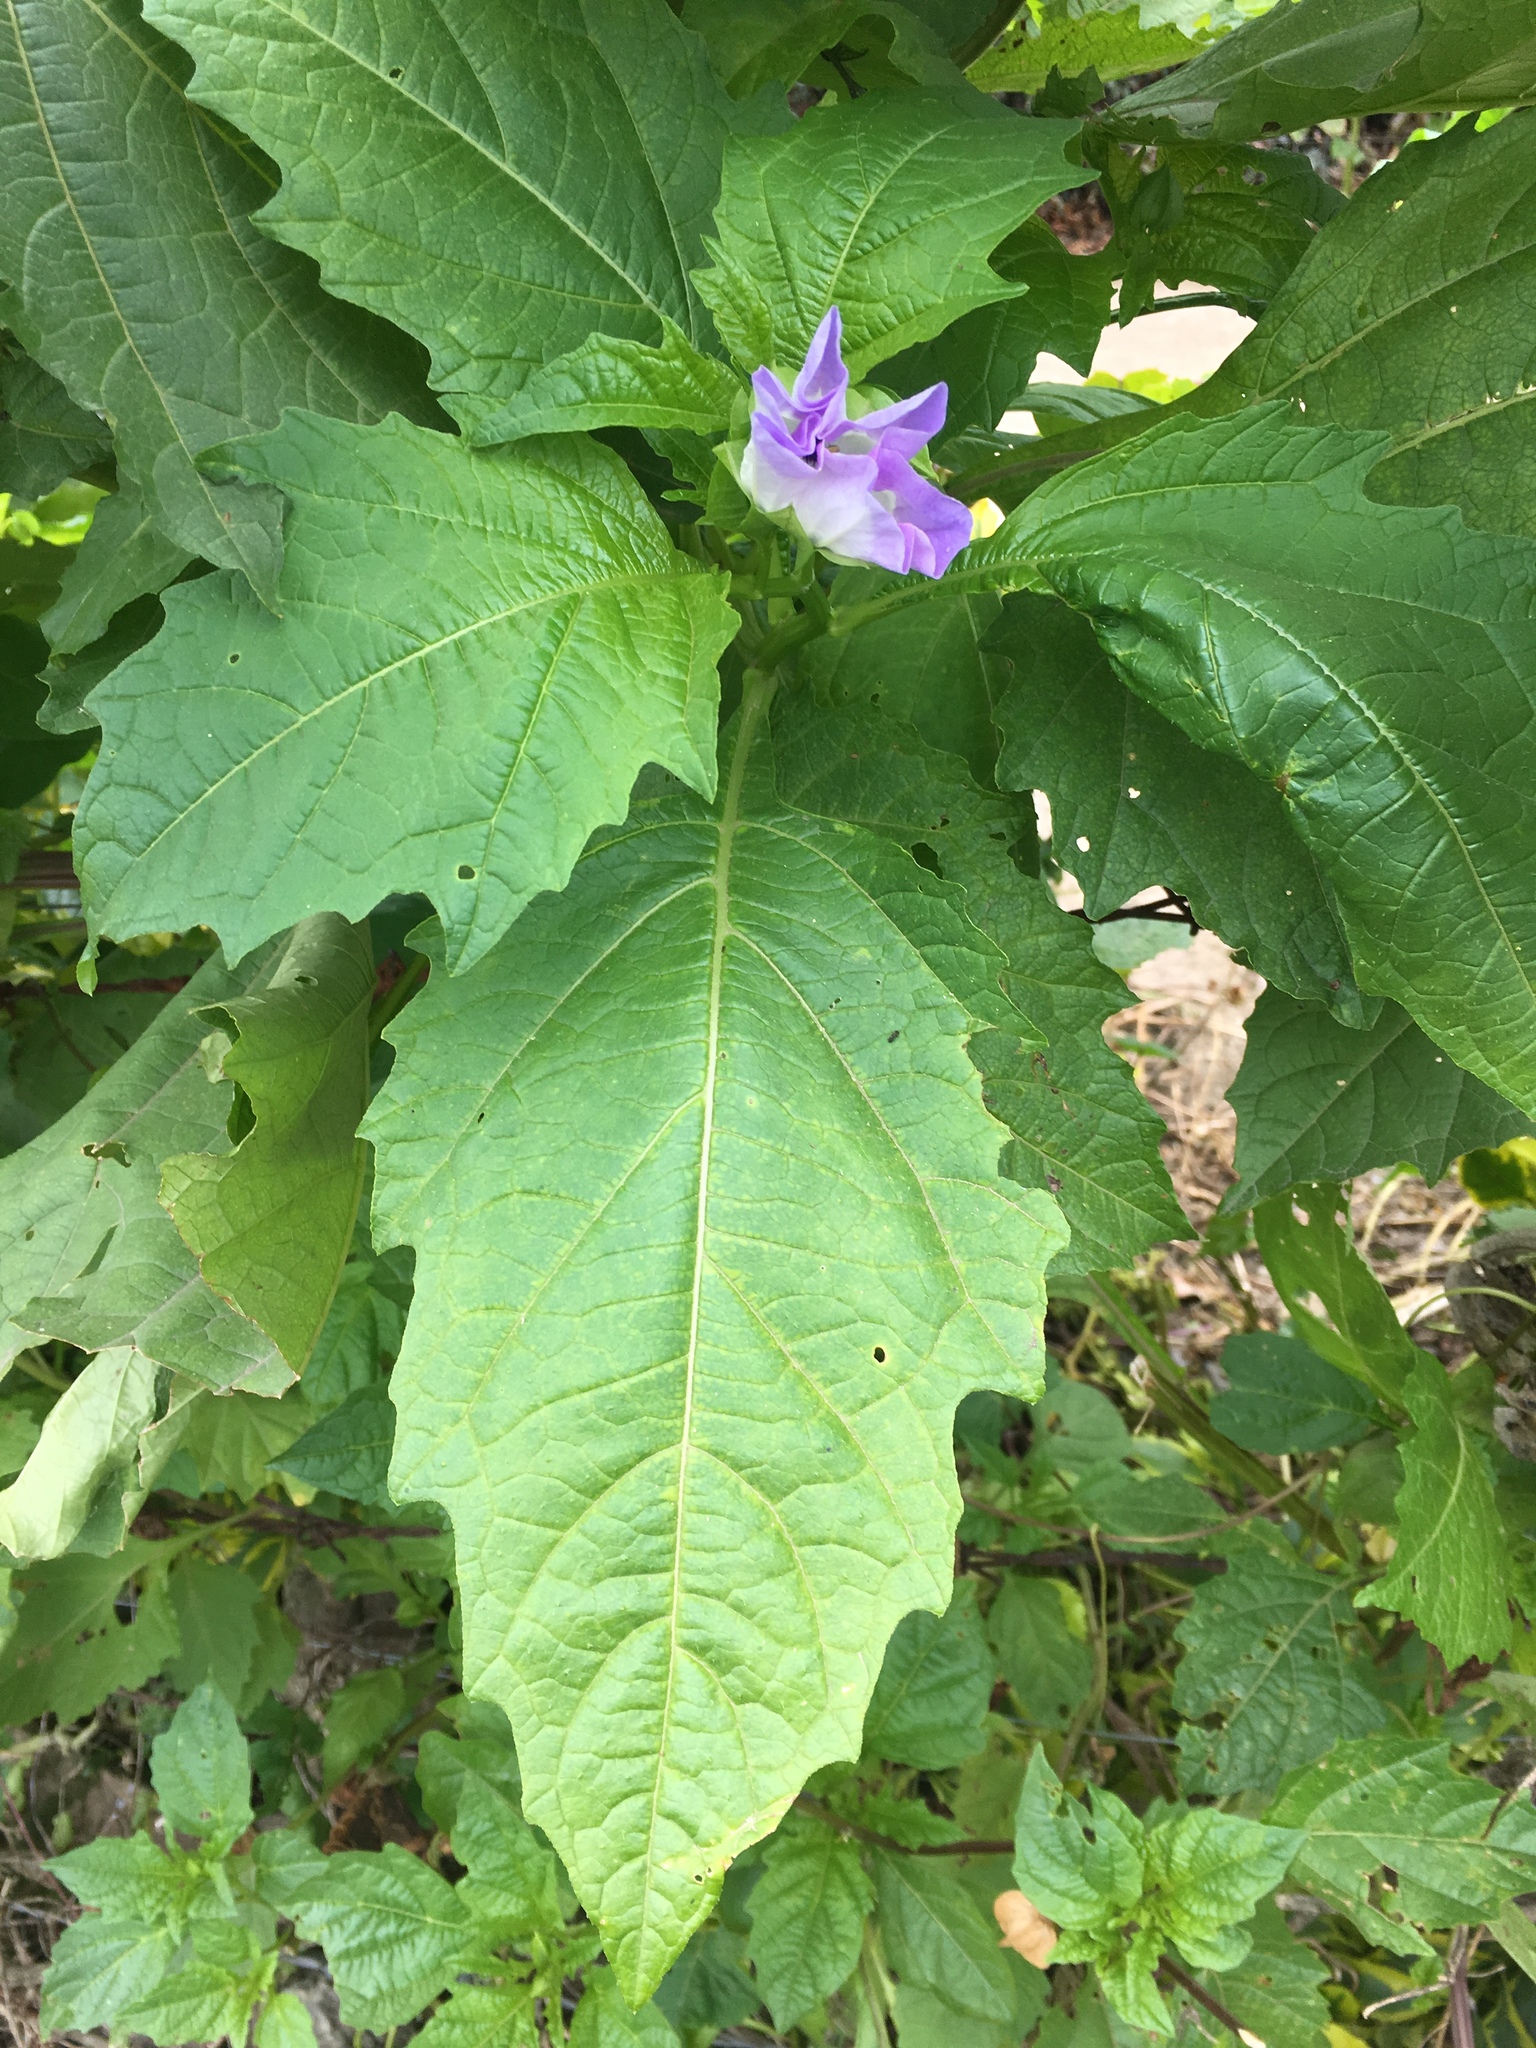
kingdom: Plantae
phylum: Tracheophyta
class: Magnoliopsida
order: Solanales
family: Solanaceae
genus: Nicandra
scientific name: Nicandra physalodes
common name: Apple-of-peru
